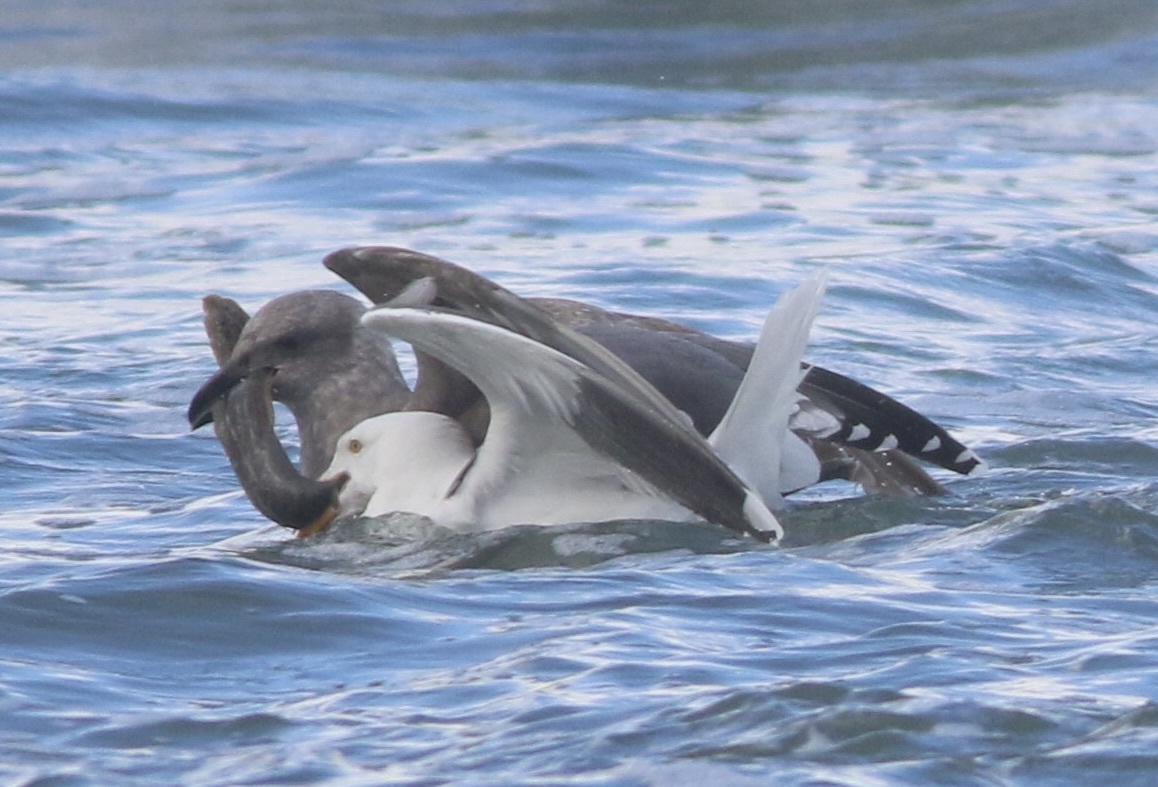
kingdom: Animalia
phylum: Chordata
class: Aves
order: Charadriiformes
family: Laridae
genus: Larus
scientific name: Larus occidentalis
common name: Western gull
